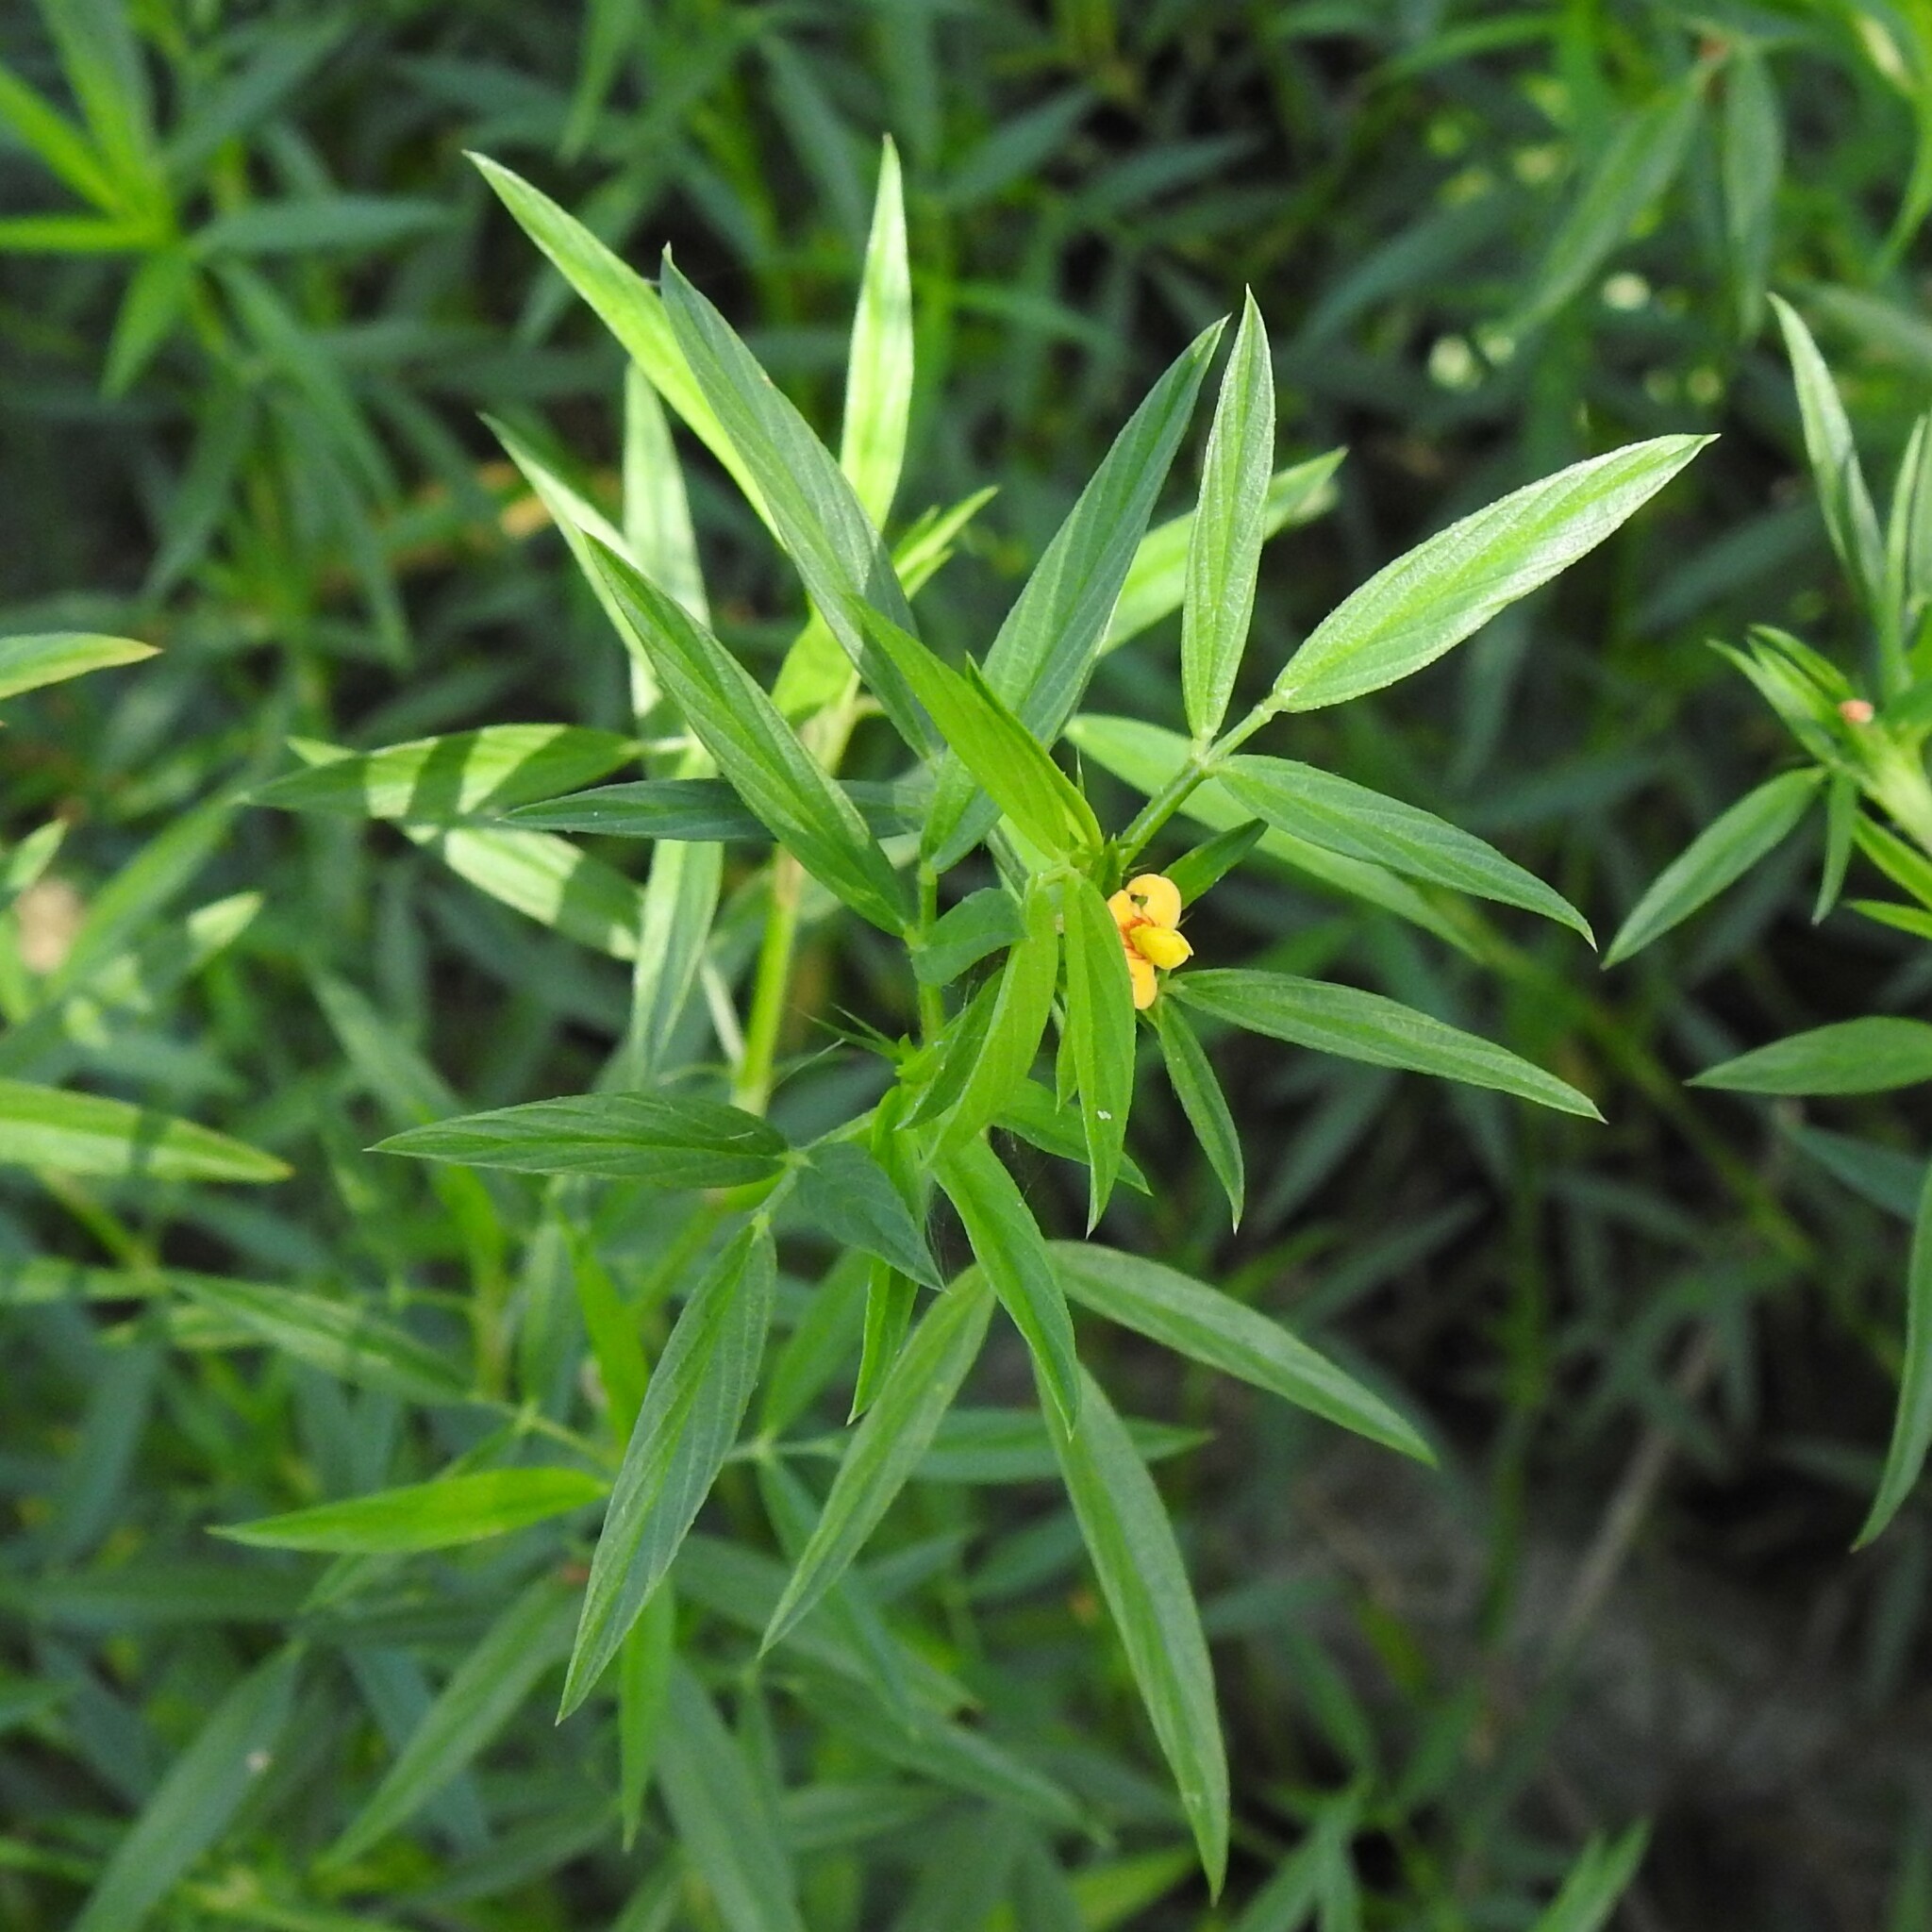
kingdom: Plantae
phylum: Tracheophyta
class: Magnoliopsida
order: Fabales
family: Fabaceae
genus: Stylosanthes
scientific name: Stylosanthes hamata
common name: Cheesytoes
